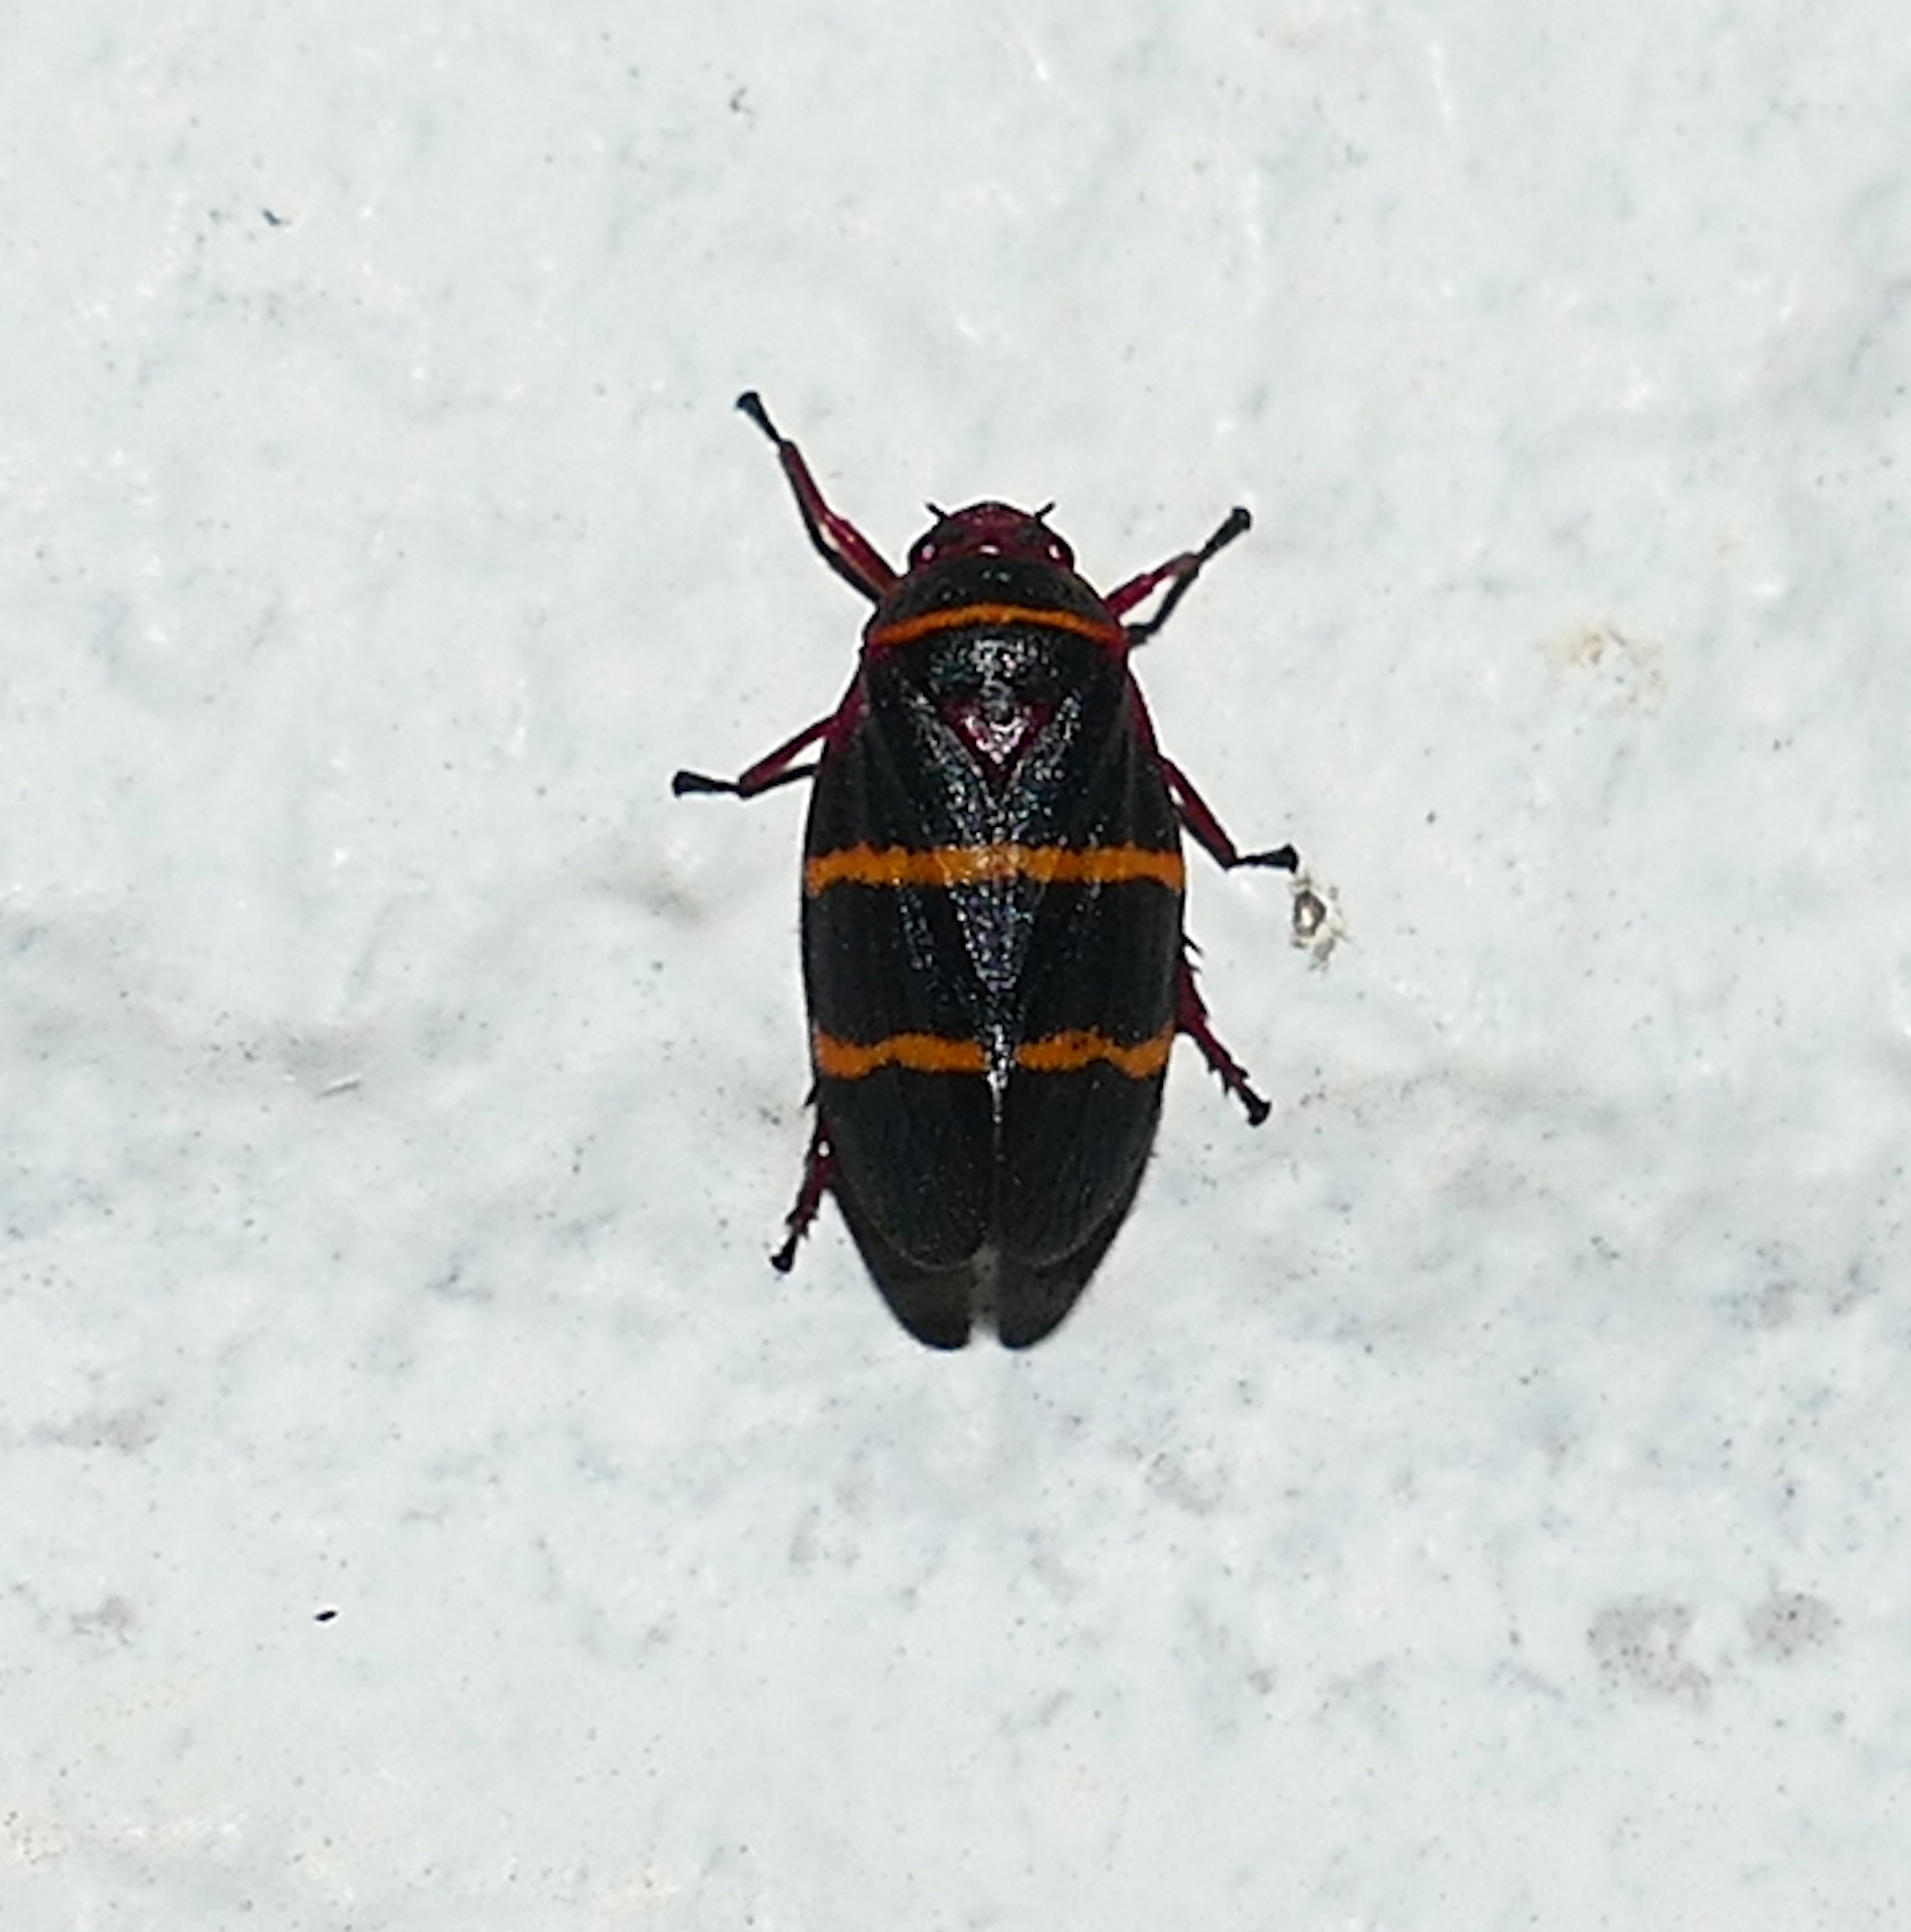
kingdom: Animalia
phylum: Arthropoda
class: Insecta
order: Hemiptera
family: Cercopidae
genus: Prosapia
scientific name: Prosapia bicincta
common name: Twolined spittlebug
